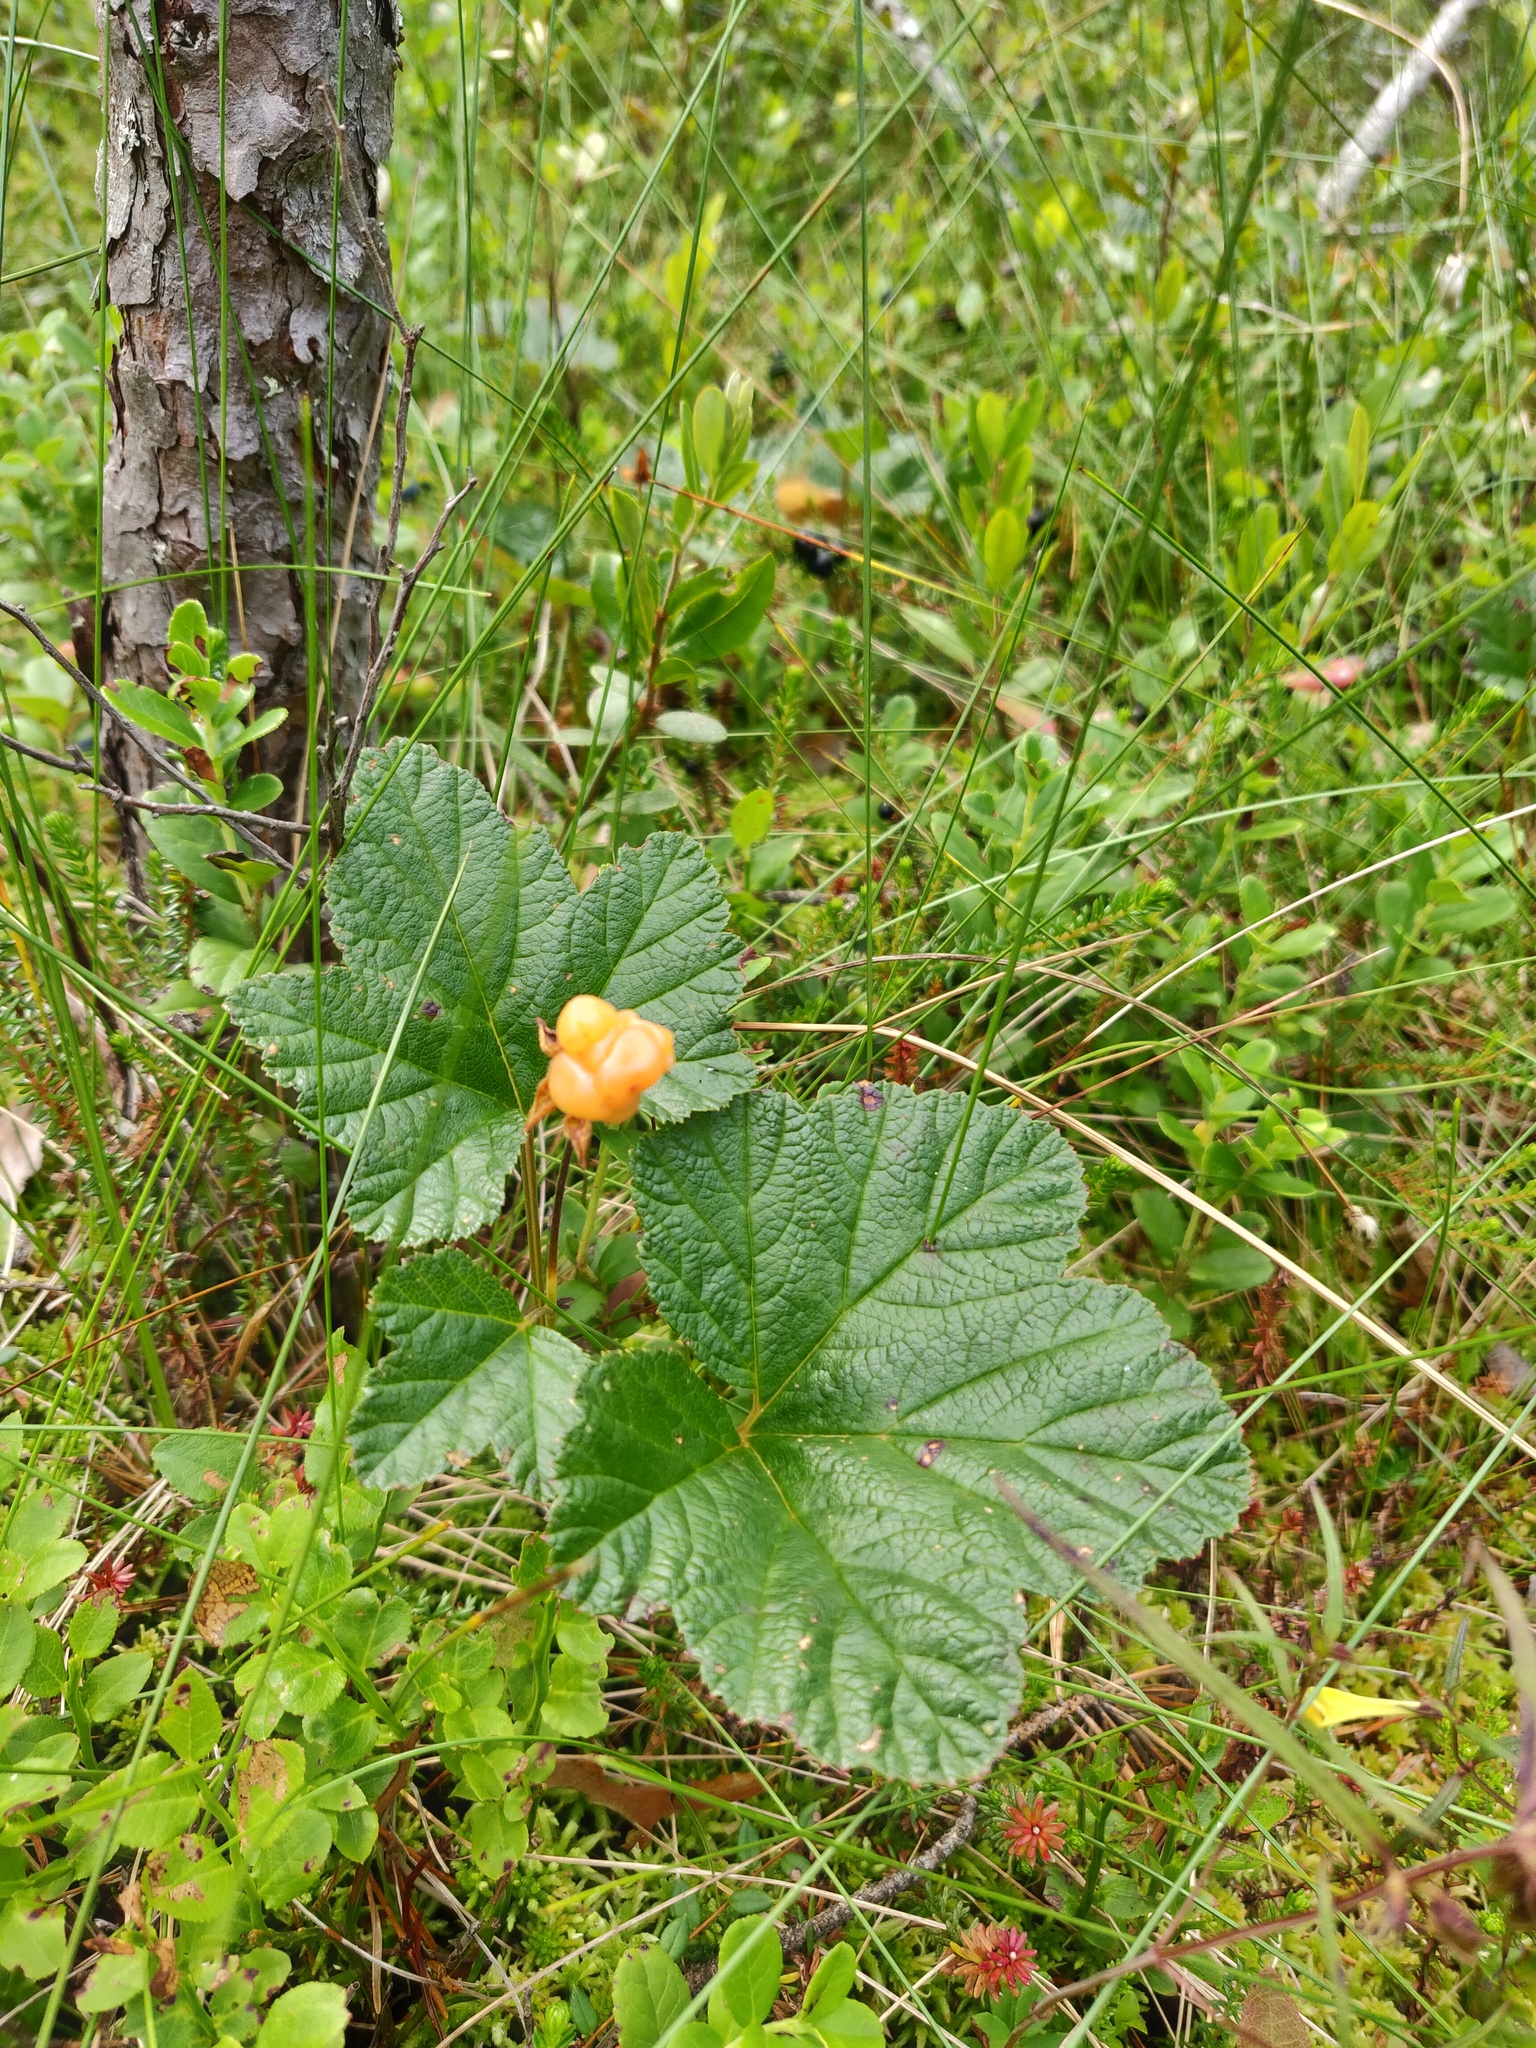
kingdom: Plantae
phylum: Tracheophyta
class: Magnoliopsida
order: Rosales
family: Rosaceae
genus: Rubus
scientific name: Rubus chamaemorus
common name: Cloudberry
